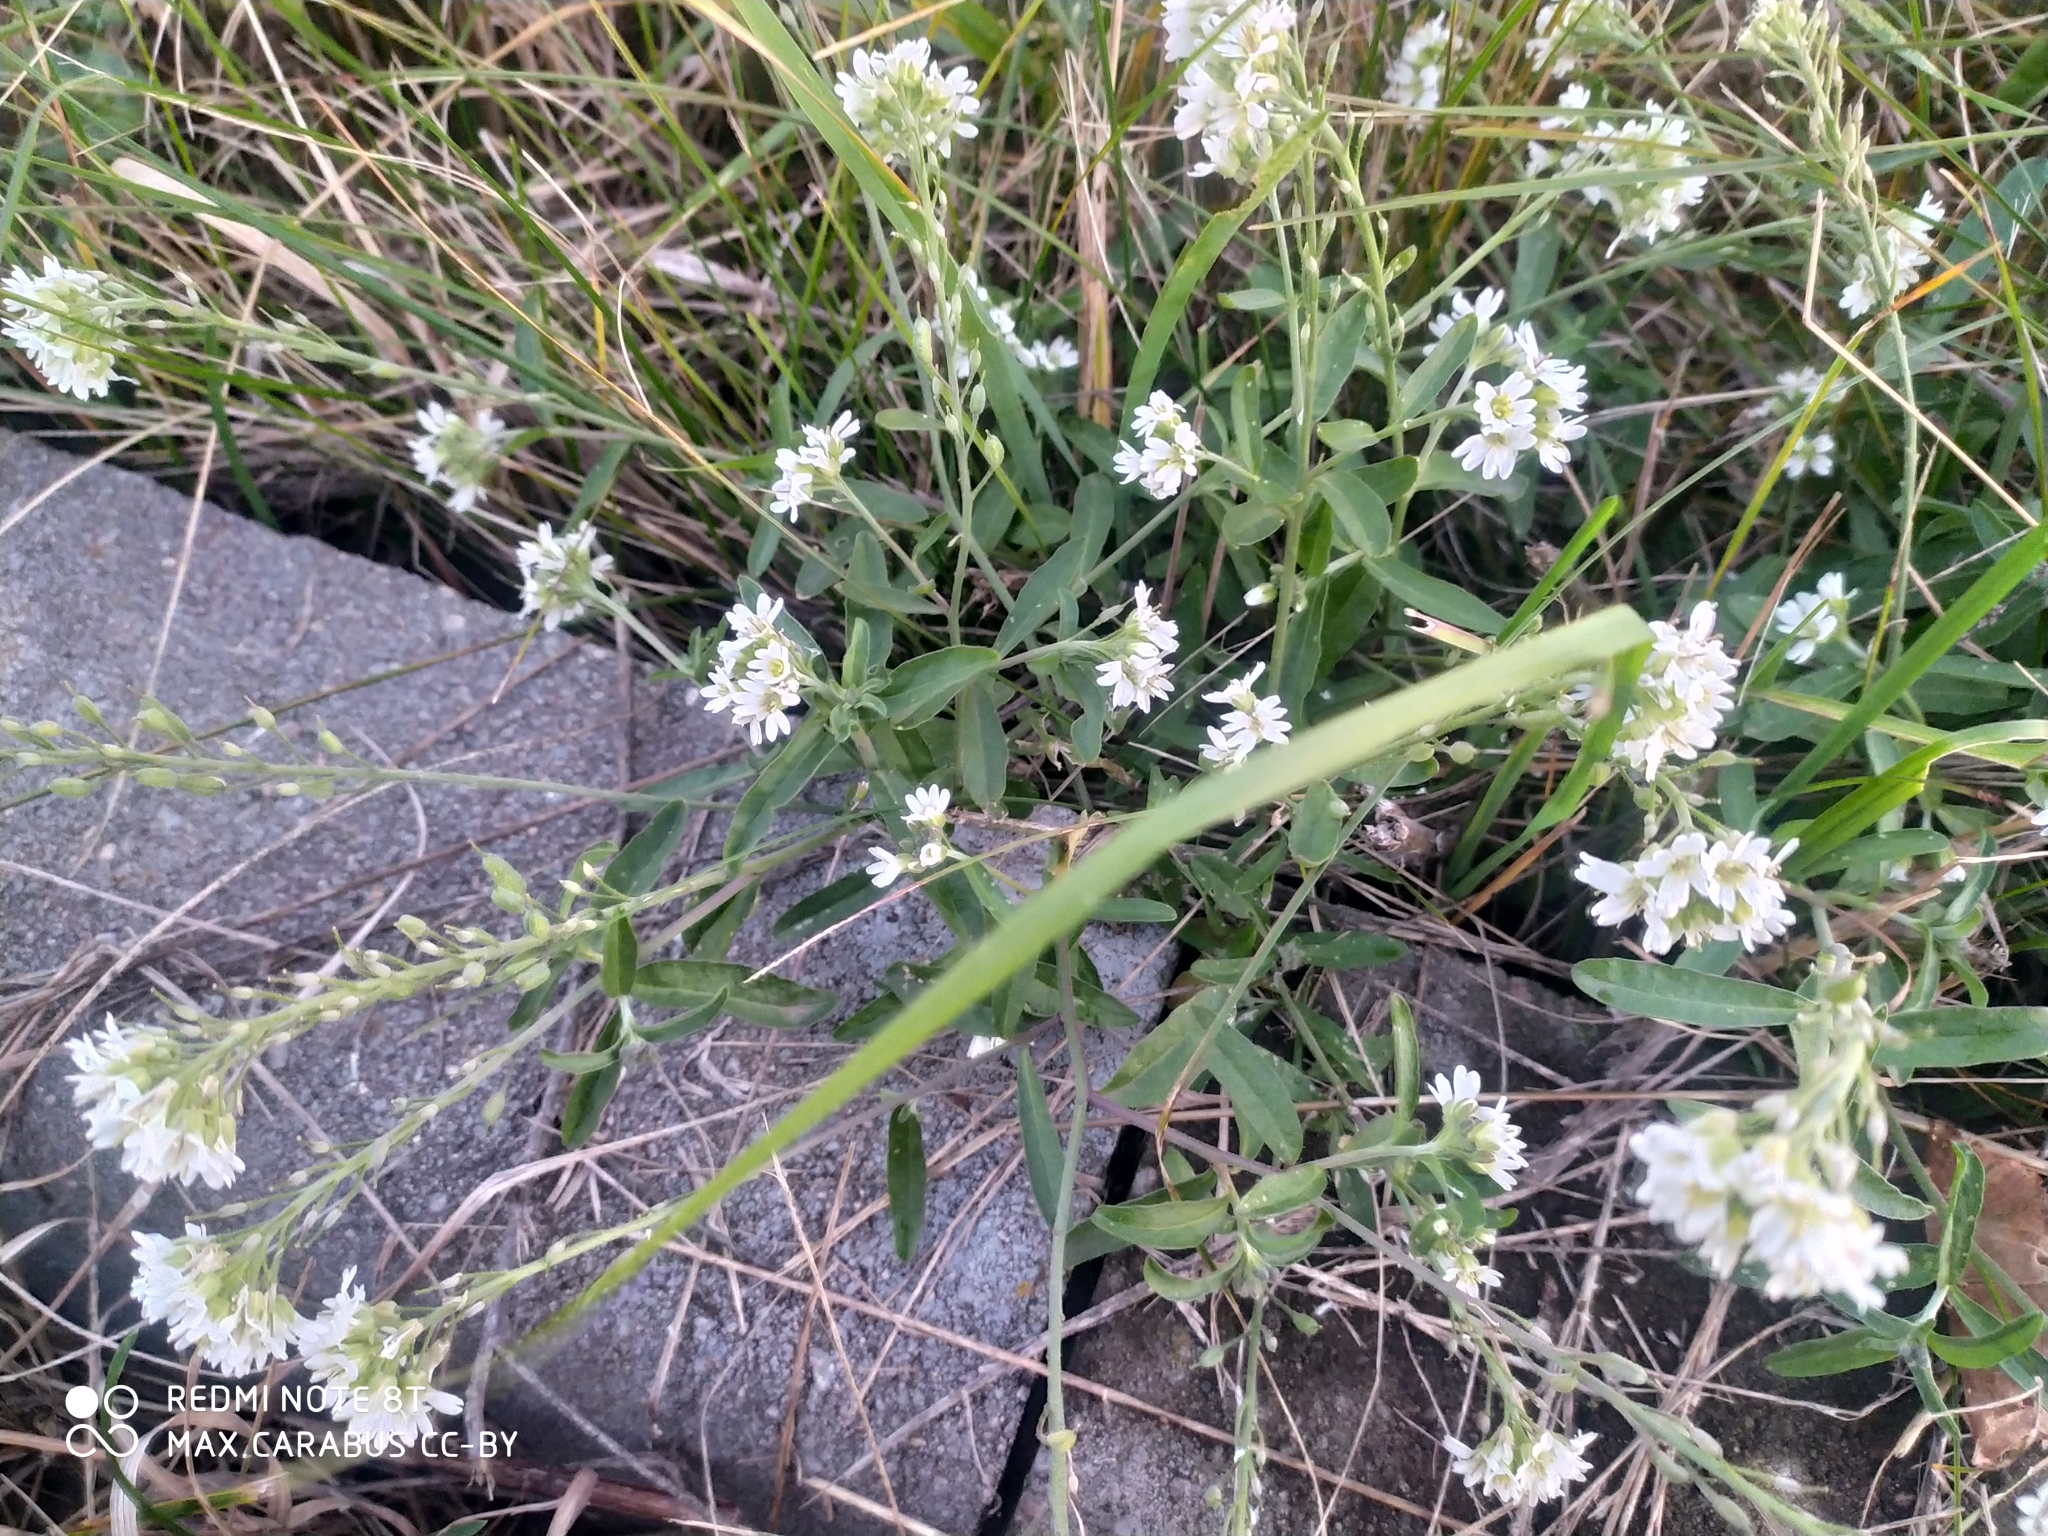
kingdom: Plantae
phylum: Tracheophyta
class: Magnoliopsida
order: Brassicales
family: Brassicaceae
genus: Berteroa
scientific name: Berteroa incana
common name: Hoary alison
